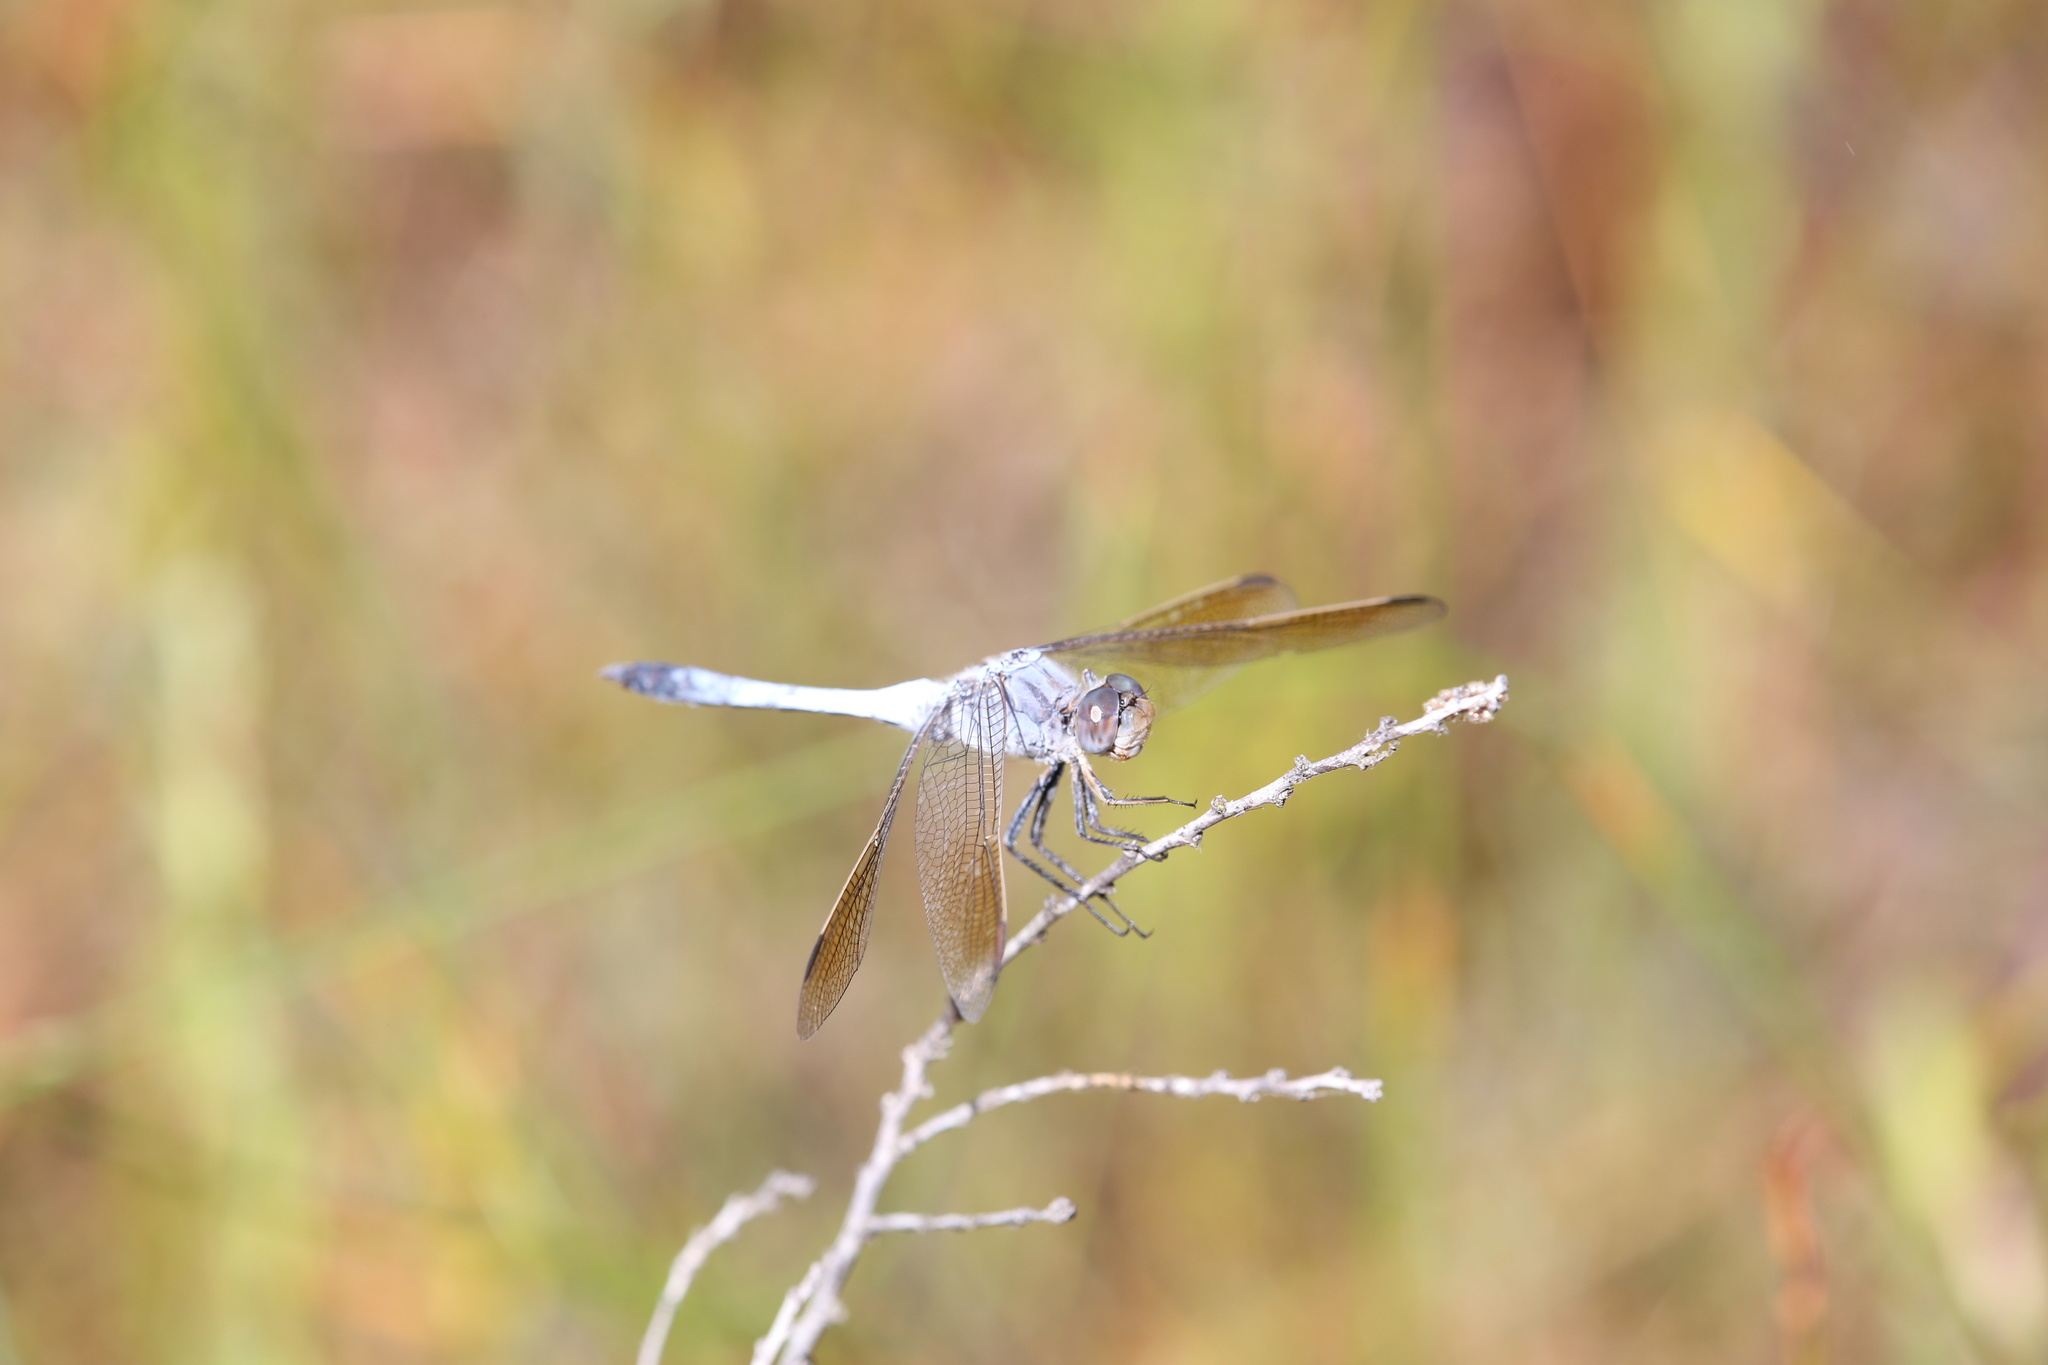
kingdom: Animalia
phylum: Arthropoda
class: Insecta
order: Odonata
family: Libellulidae
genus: Orthetrum
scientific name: Orthetrum caledonicum
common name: Blue skimmer
